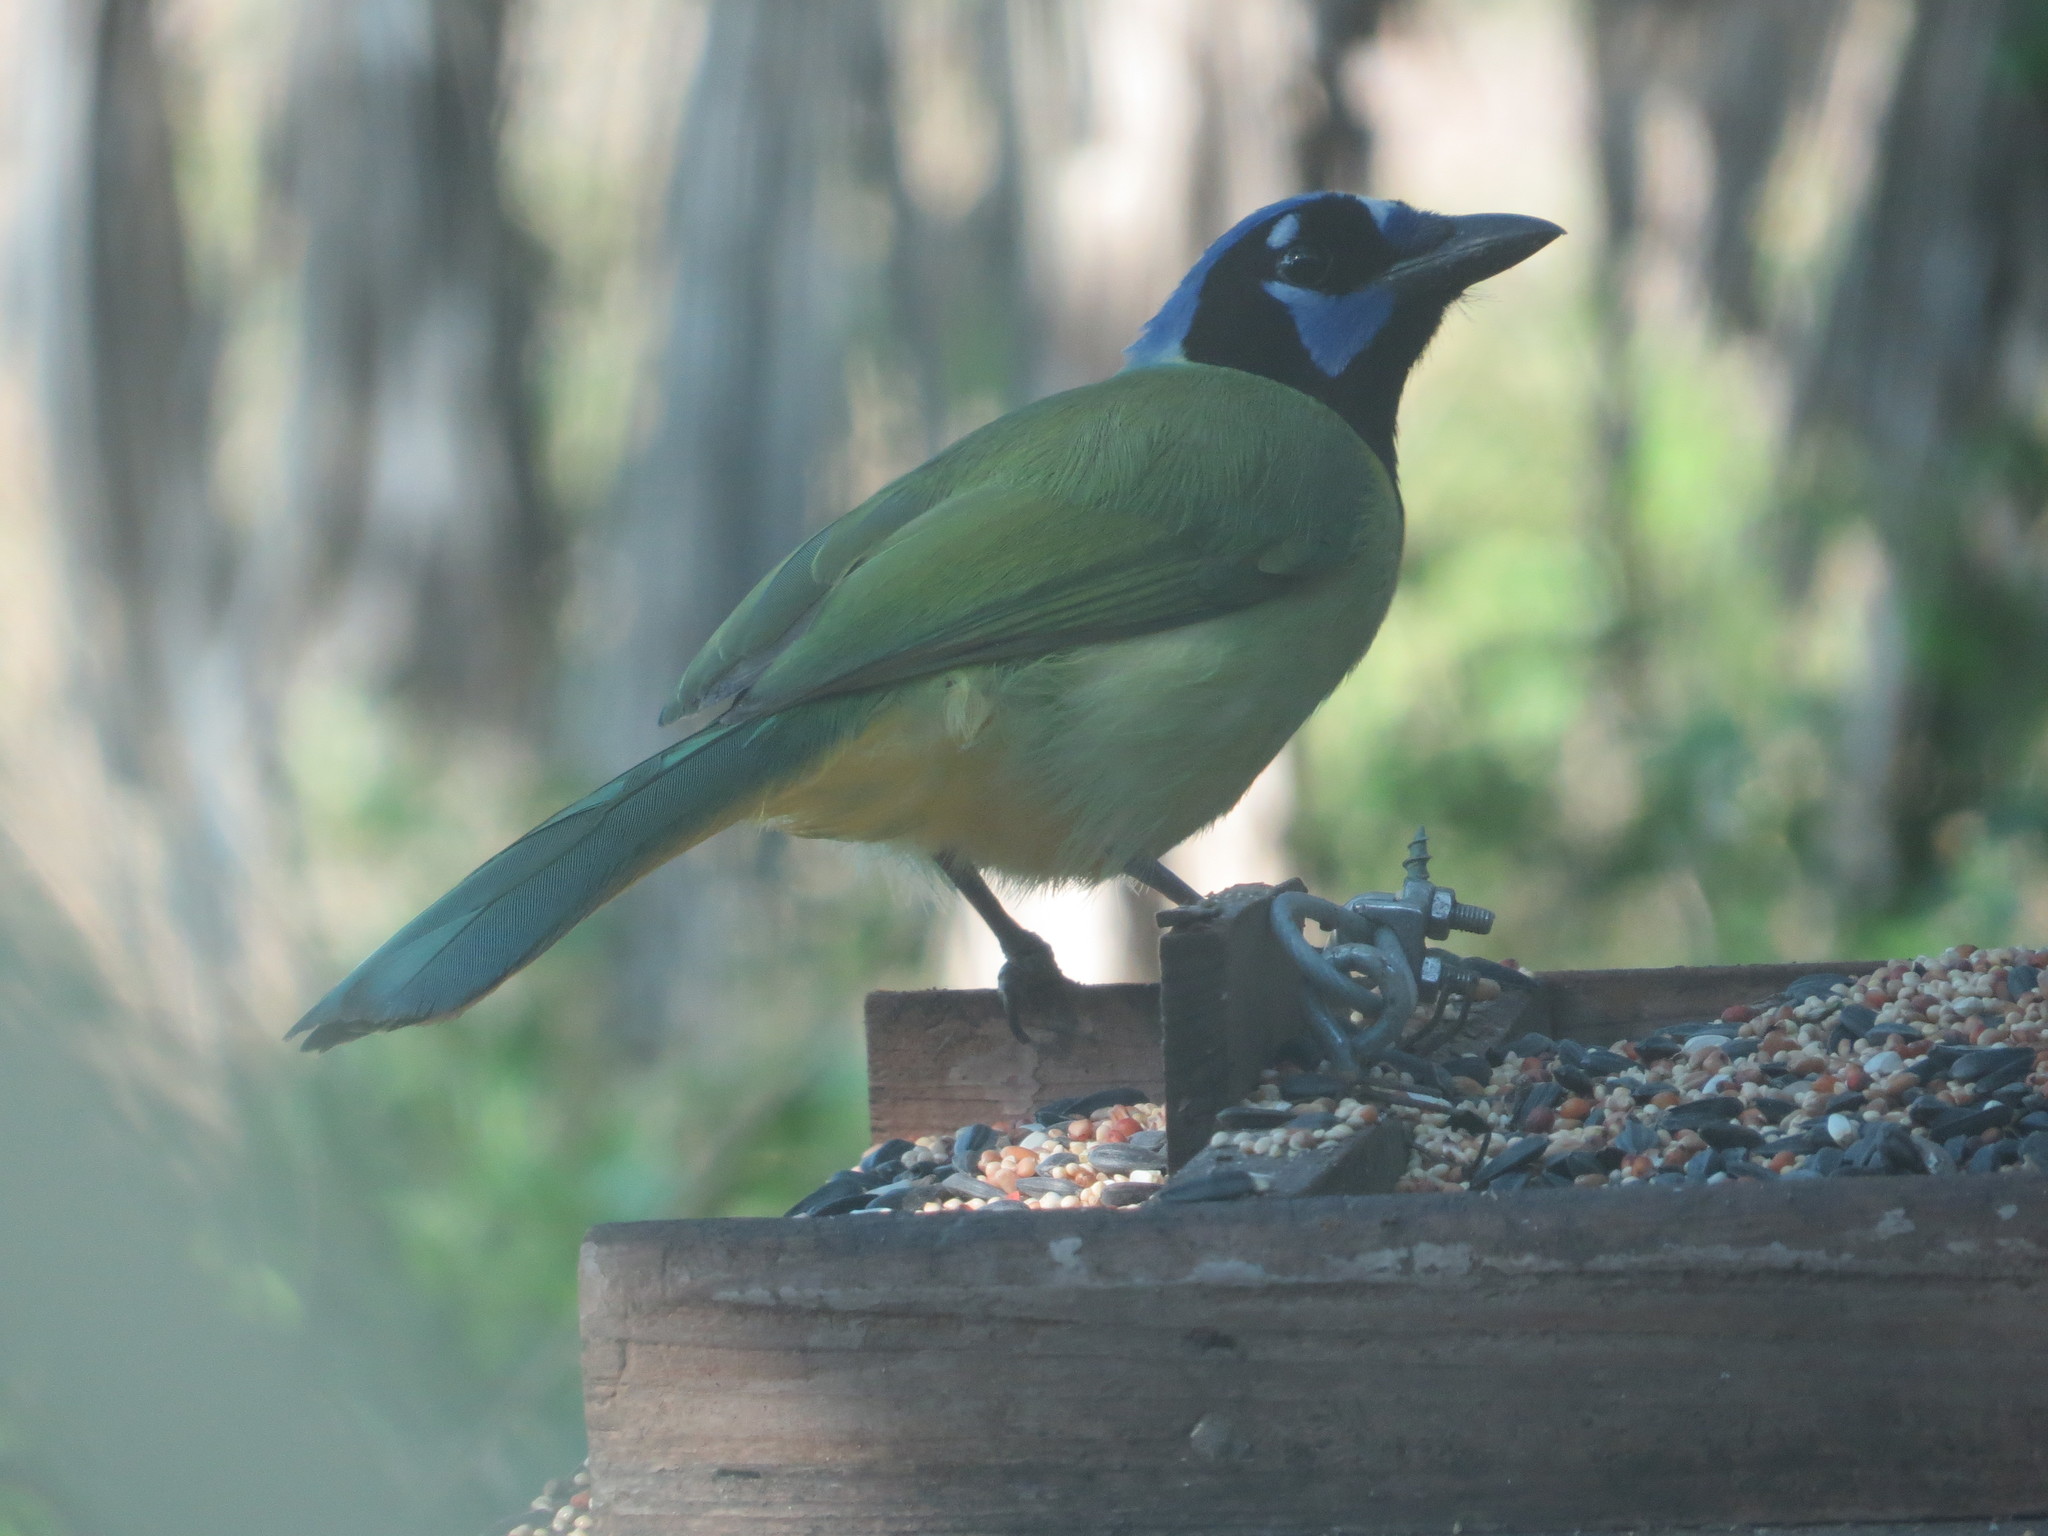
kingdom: Animalia
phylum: Chordata
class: Aves
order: Passeriformes
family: Corvidae
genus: Cyanocorax
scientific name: Cyanocorax yncas
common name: Green jay
